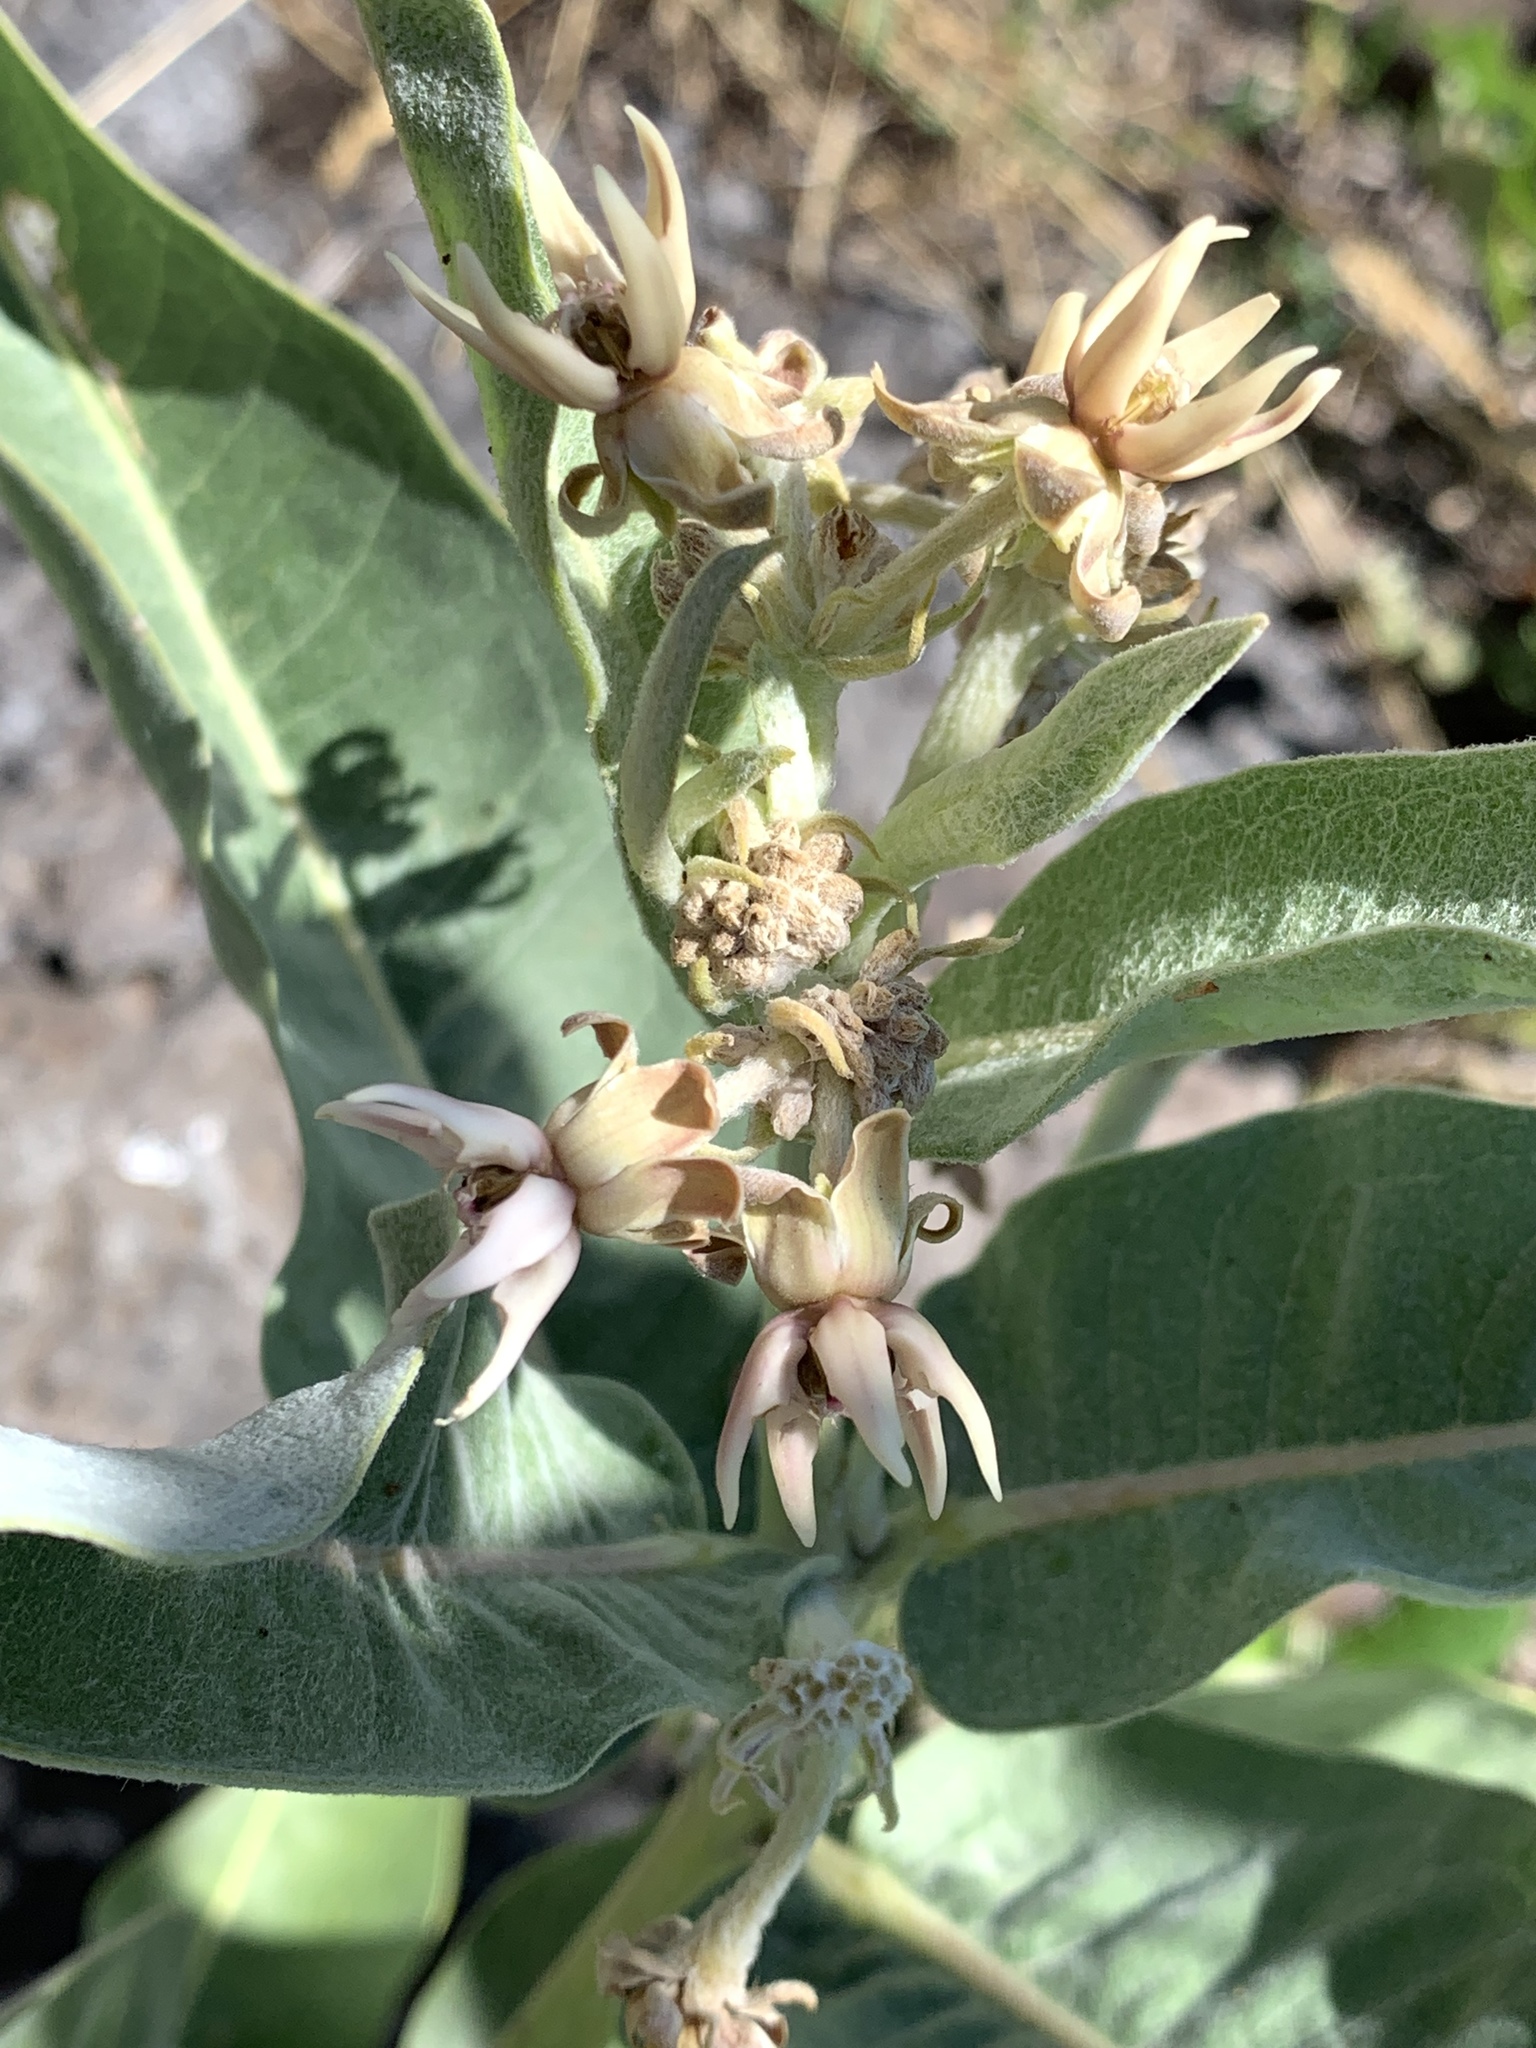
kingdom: Plantae
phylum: Tracheophyta
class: Magnoliopsida
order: Gentianales
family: Apocynaceae
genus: Asclepias
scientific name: Asclepias speciosa
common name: Showy milkweed
